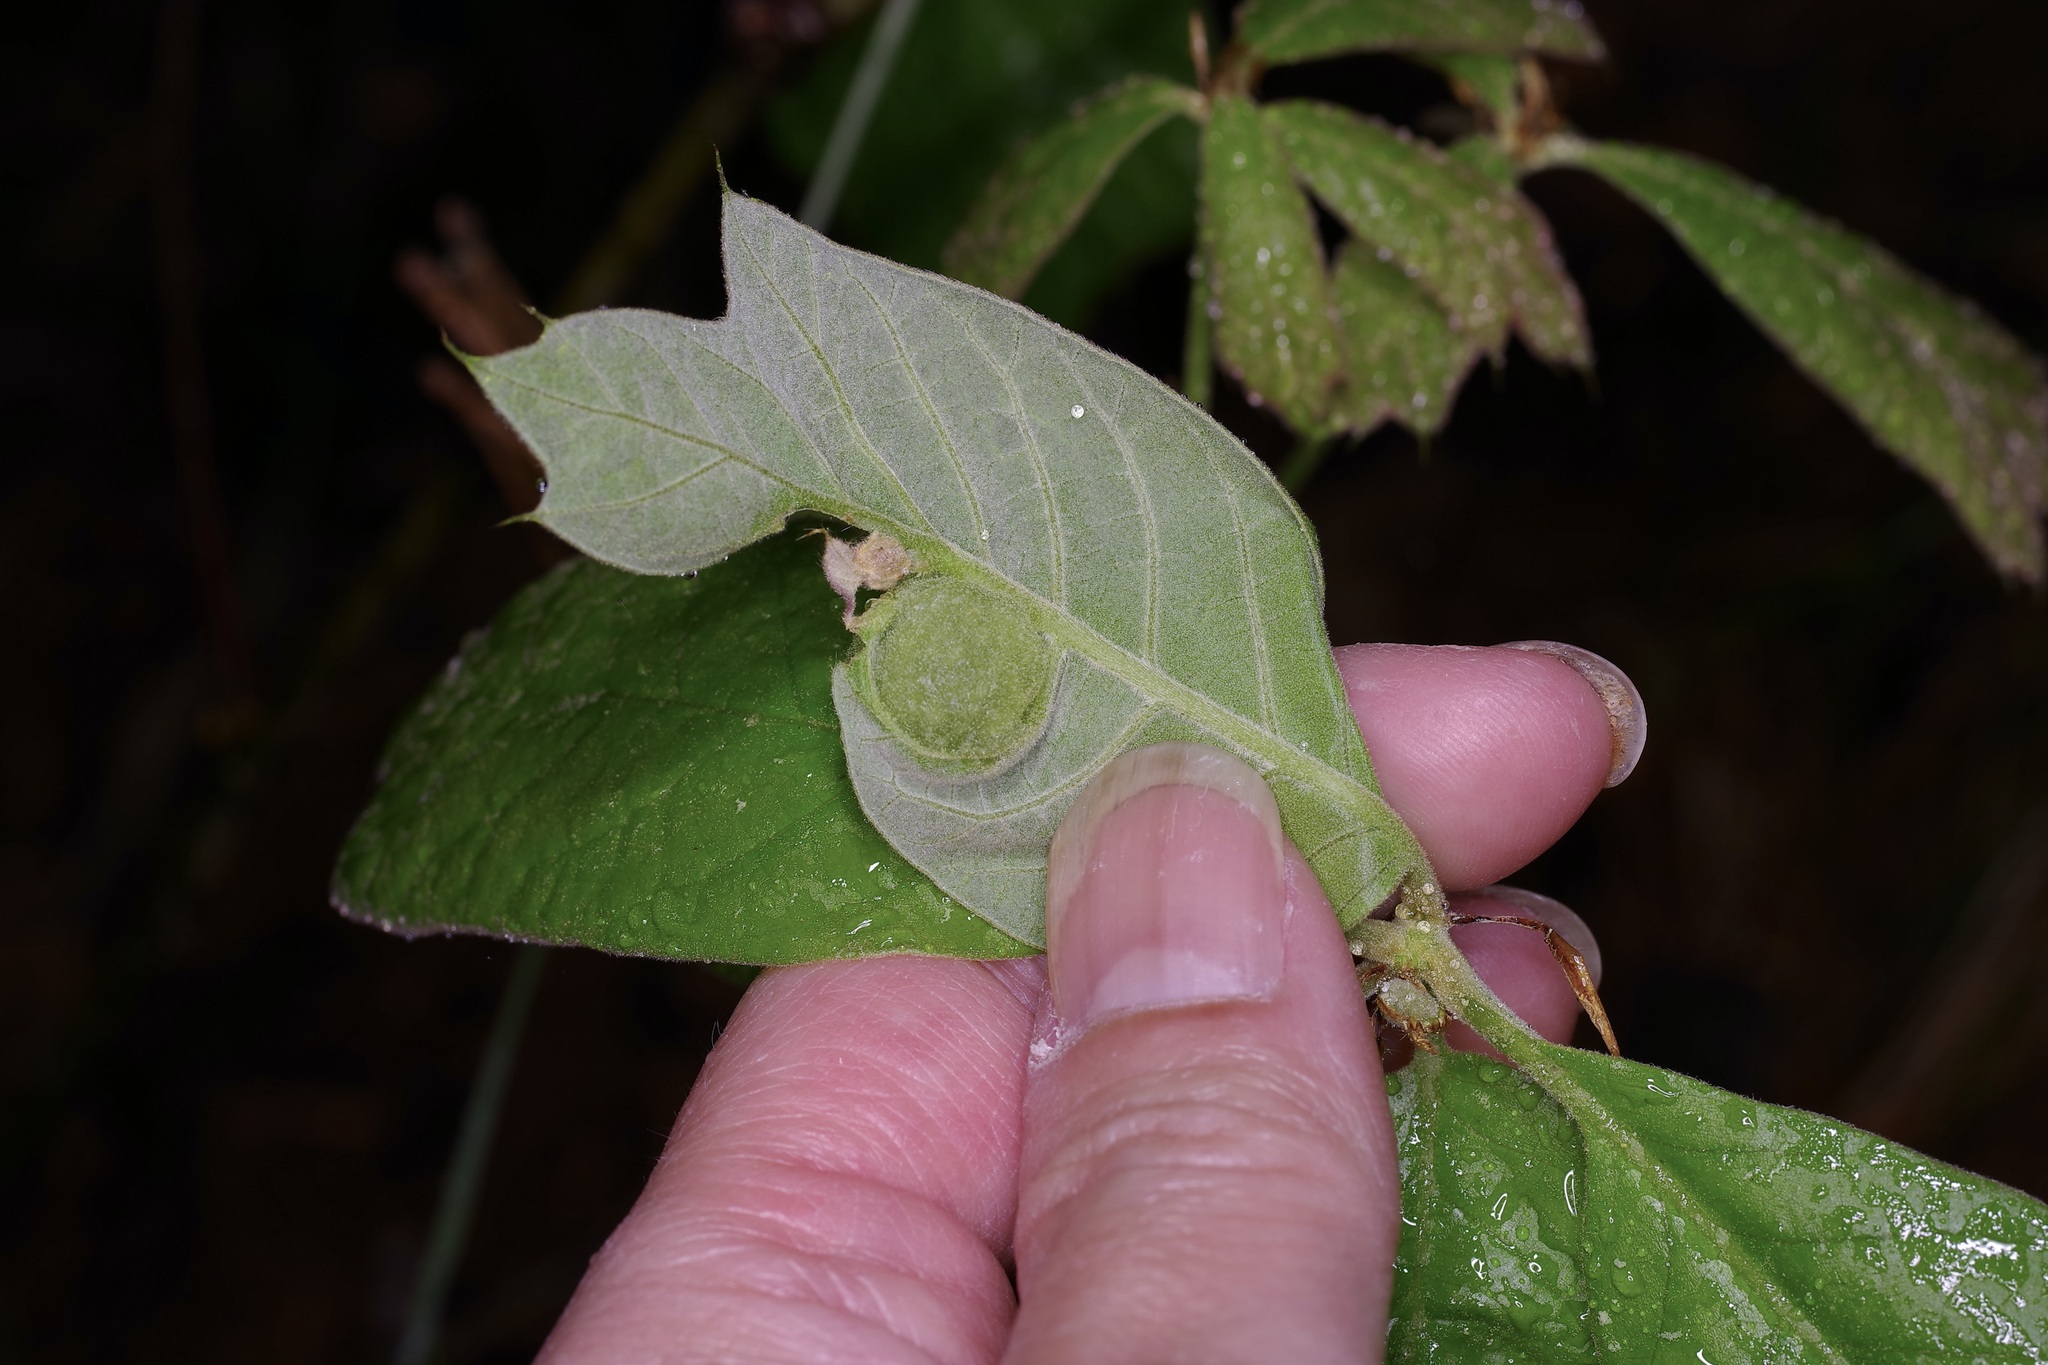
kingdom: Animalia
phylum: Arthropoda
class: Insecta
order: Hymenoptera
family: Cynipidae
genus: Dryocosmus
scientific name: Dryocosmus quercuspalustris
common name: Succulent oak gall wasp
